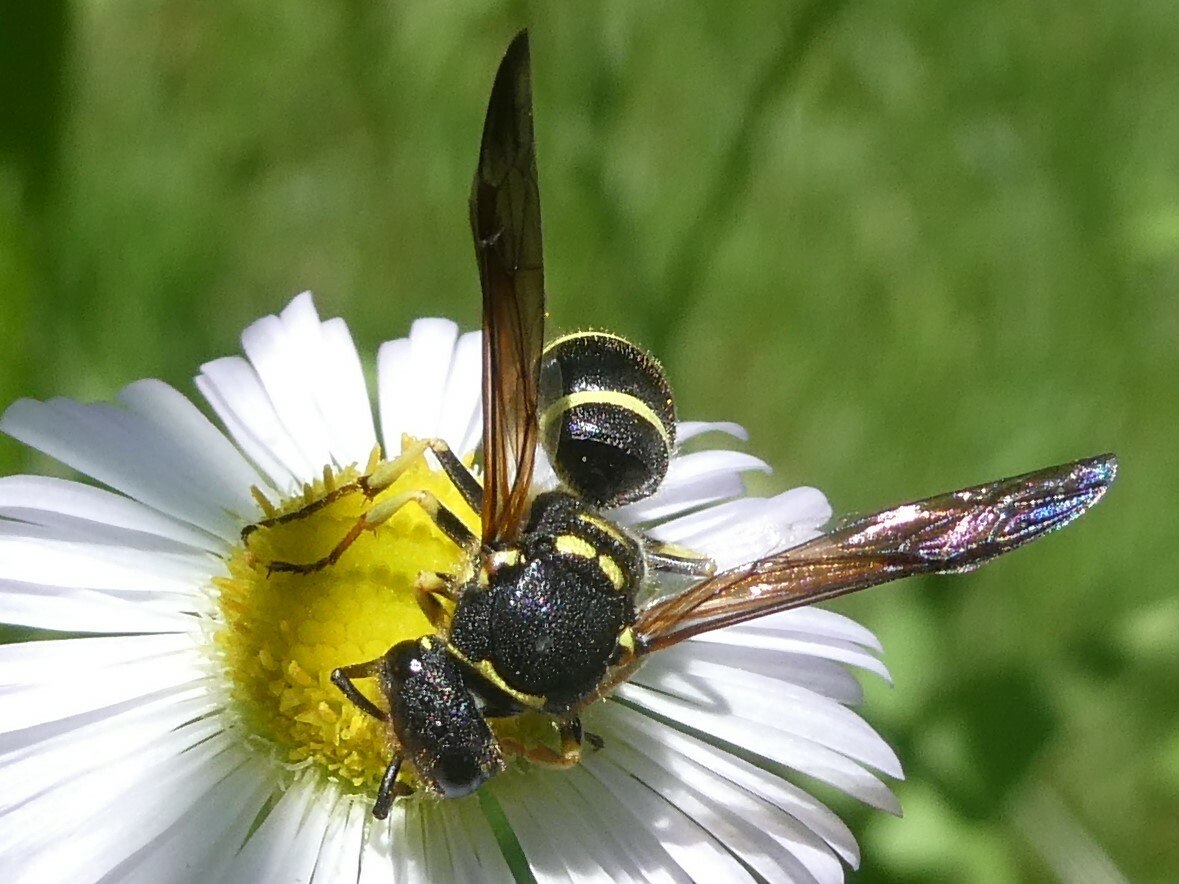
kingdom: Animalia
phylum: Arthropoda
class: Insecta
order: Hymenoptera
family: Vespidae
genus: Ancistrocerus
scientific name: Ancistrocerus catskill
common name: Vespid wasp
